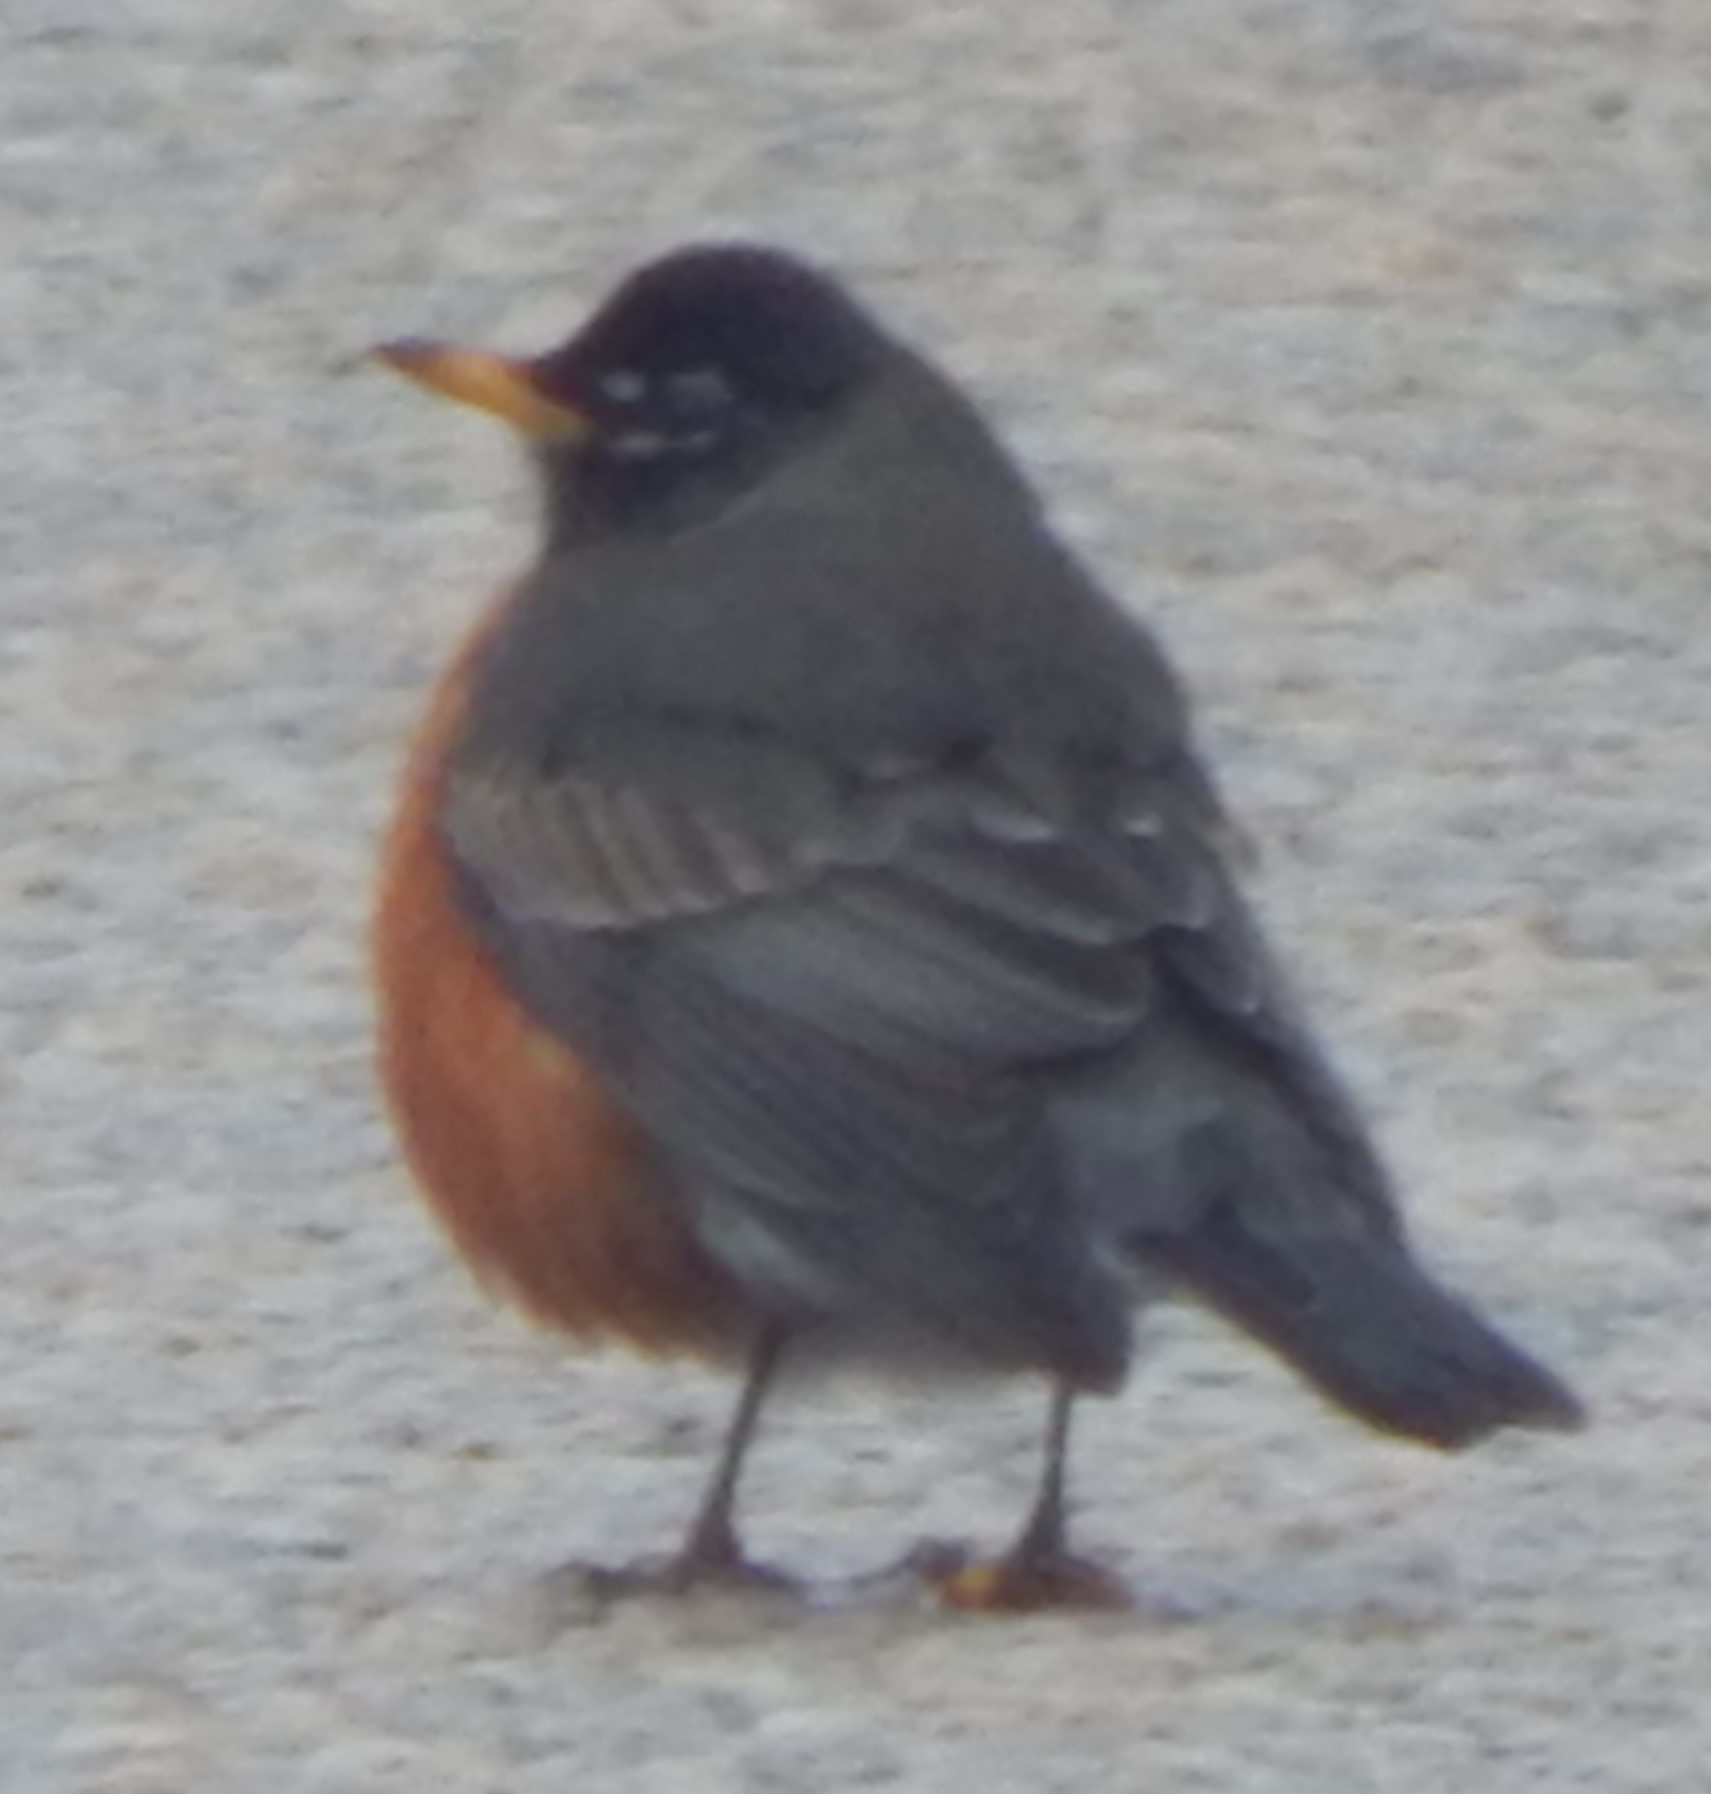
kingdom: Animalia
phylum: Chordata
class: Aves
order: Passeriformes
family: Turdidae
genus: Turdus
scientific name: Turdus migratorius
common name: American robin
